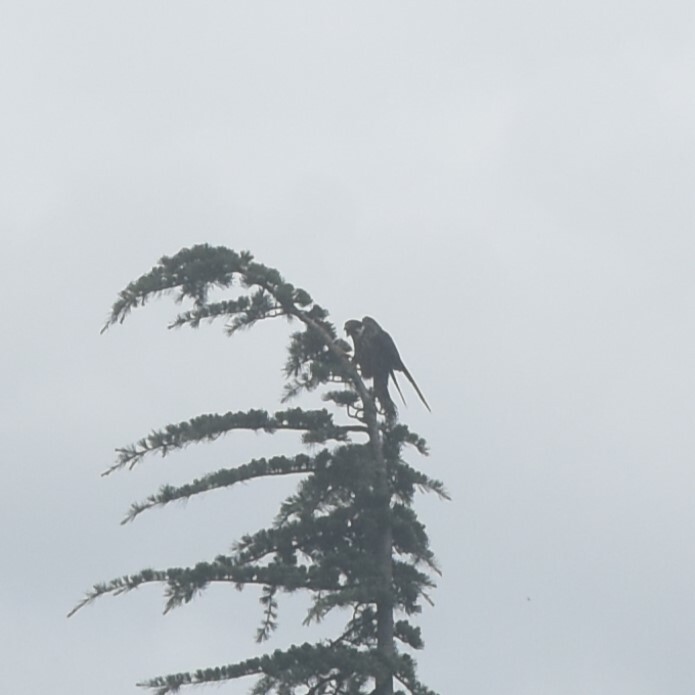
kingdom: Animalia
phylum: Chordata
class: Aves
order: Falconiformes
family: Falconidae
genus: Falco
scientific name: Falco subbuteo
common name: Eurasian hobby
